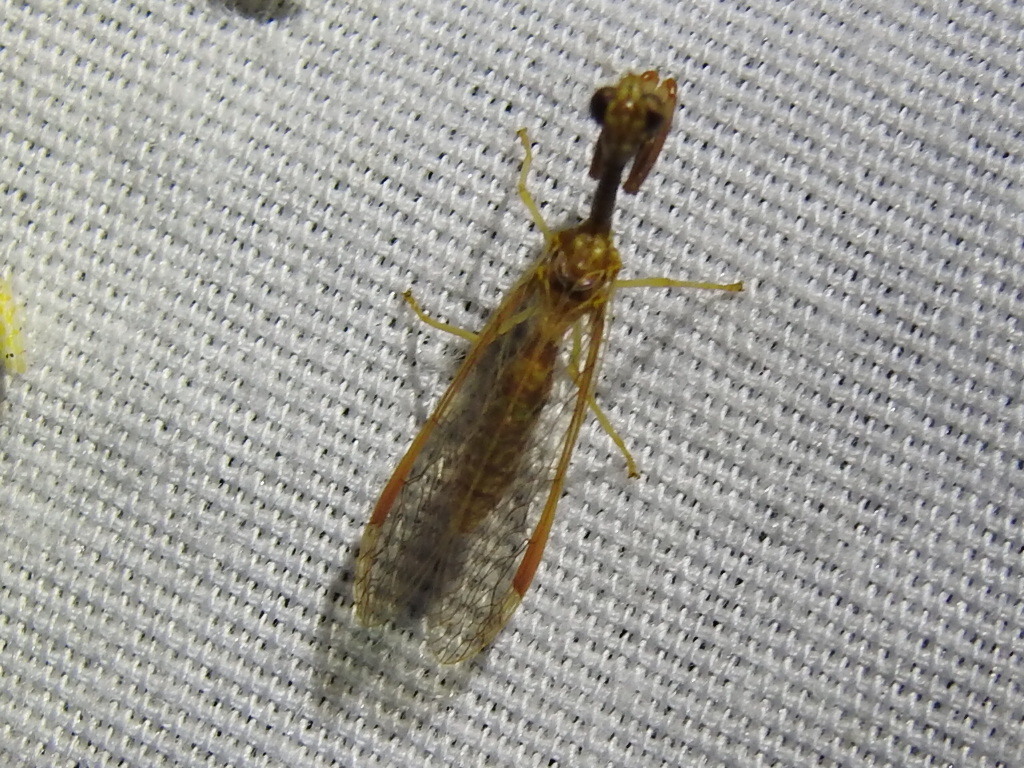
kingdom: Animalia
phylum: Arthropoda
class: Insecta
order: Neuroptera
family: Mantispidae
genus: Dicromantispa
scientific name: Dicromantispa sayi
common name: Say's mantidfly
